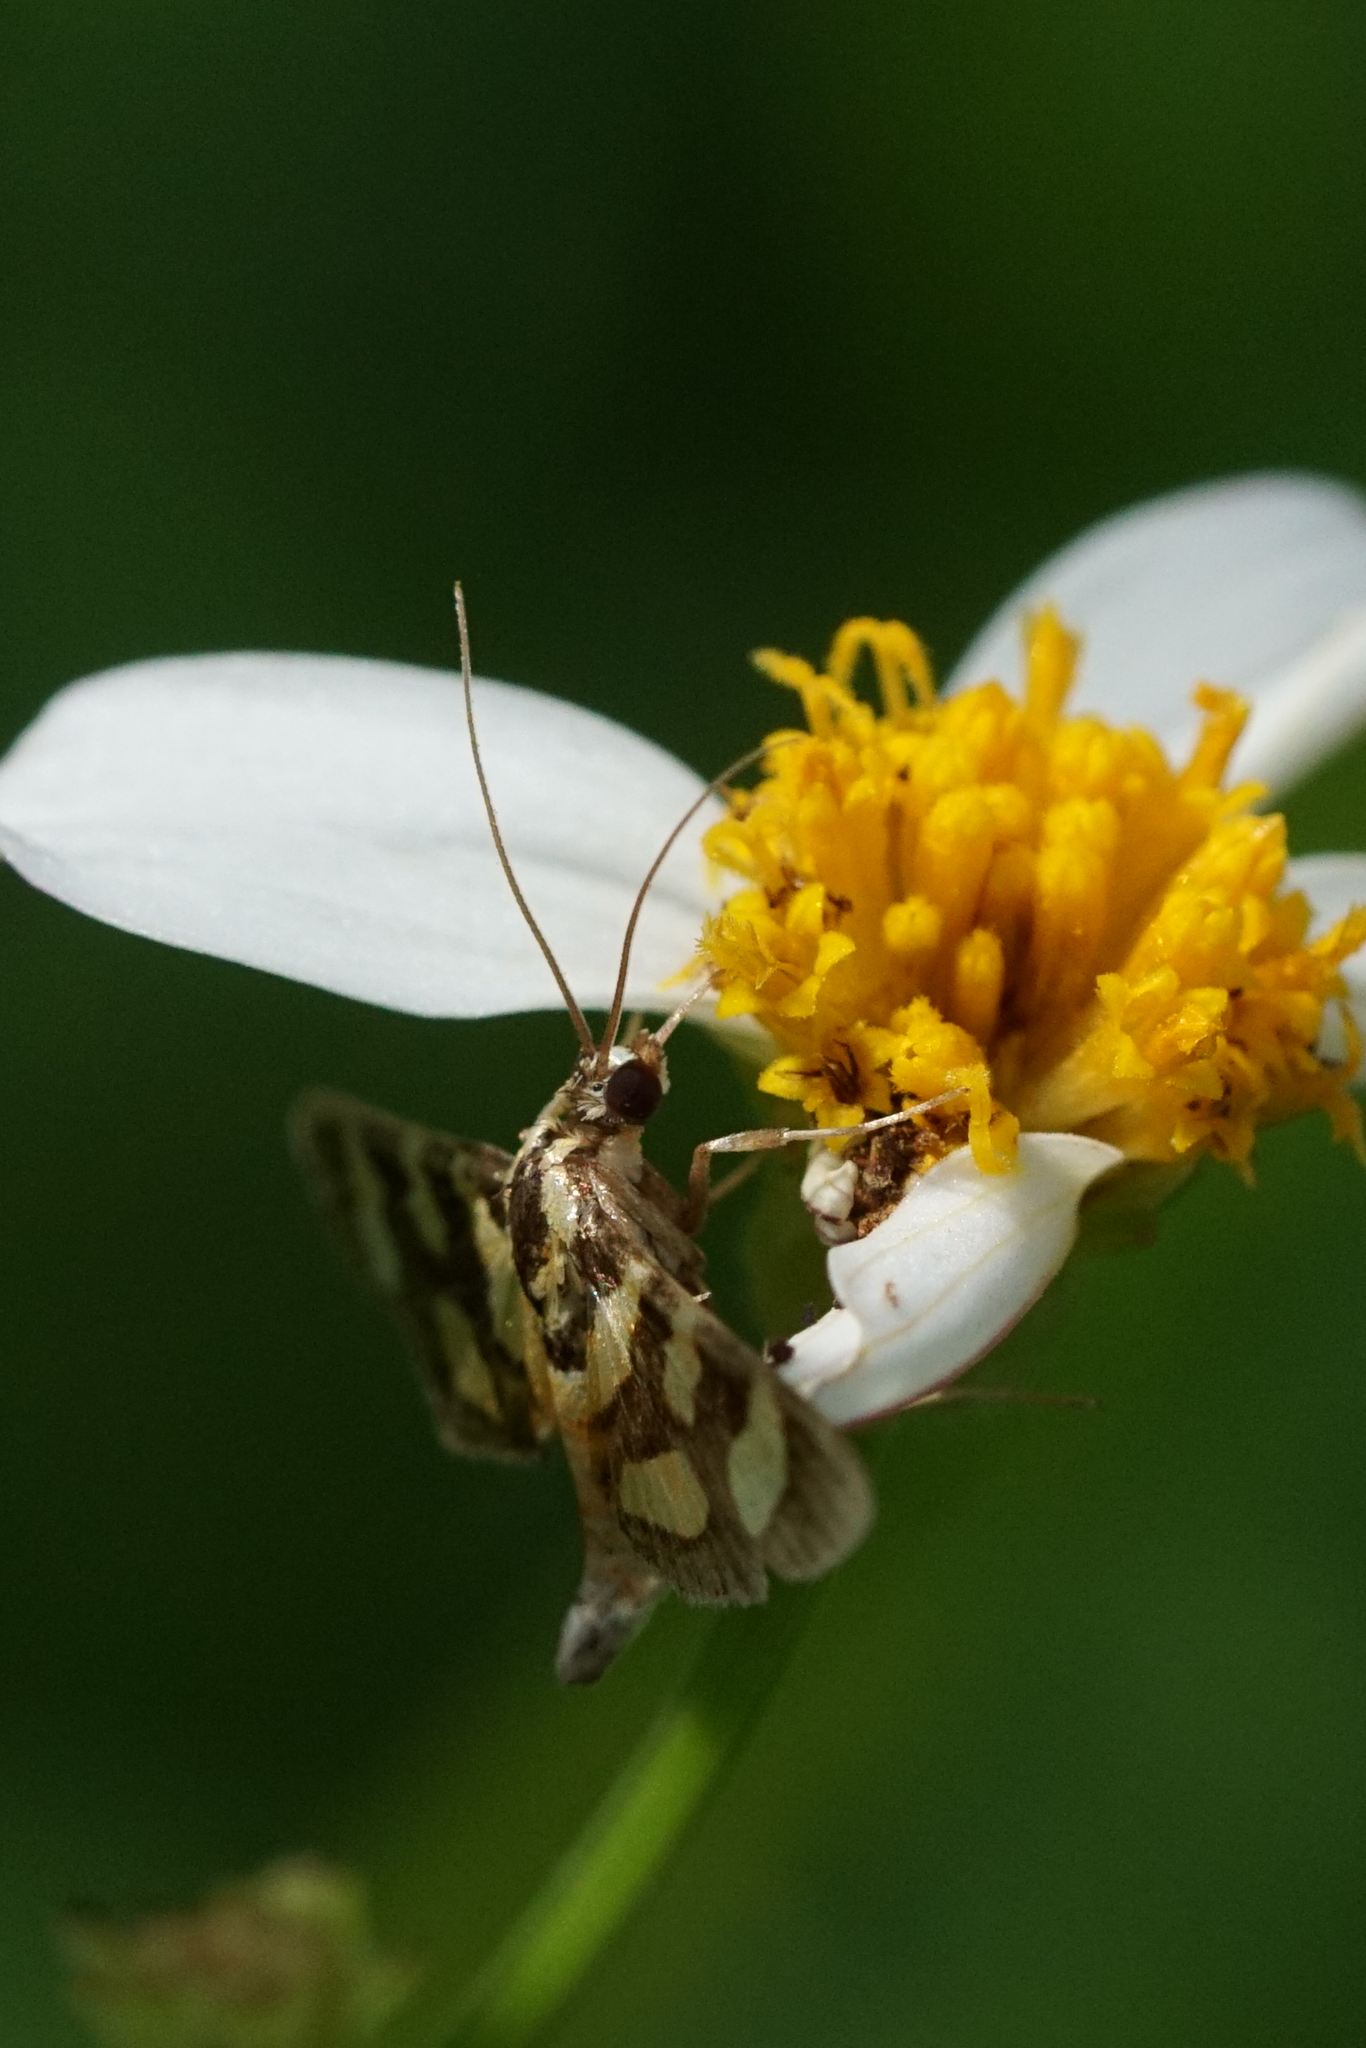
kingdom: Animalia
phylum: Arthropoda
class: Insecta
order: Lepidoptera
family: Crambidae
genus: Syngamia
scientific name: Syngamia florella
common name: Orange-spotted flower moth
